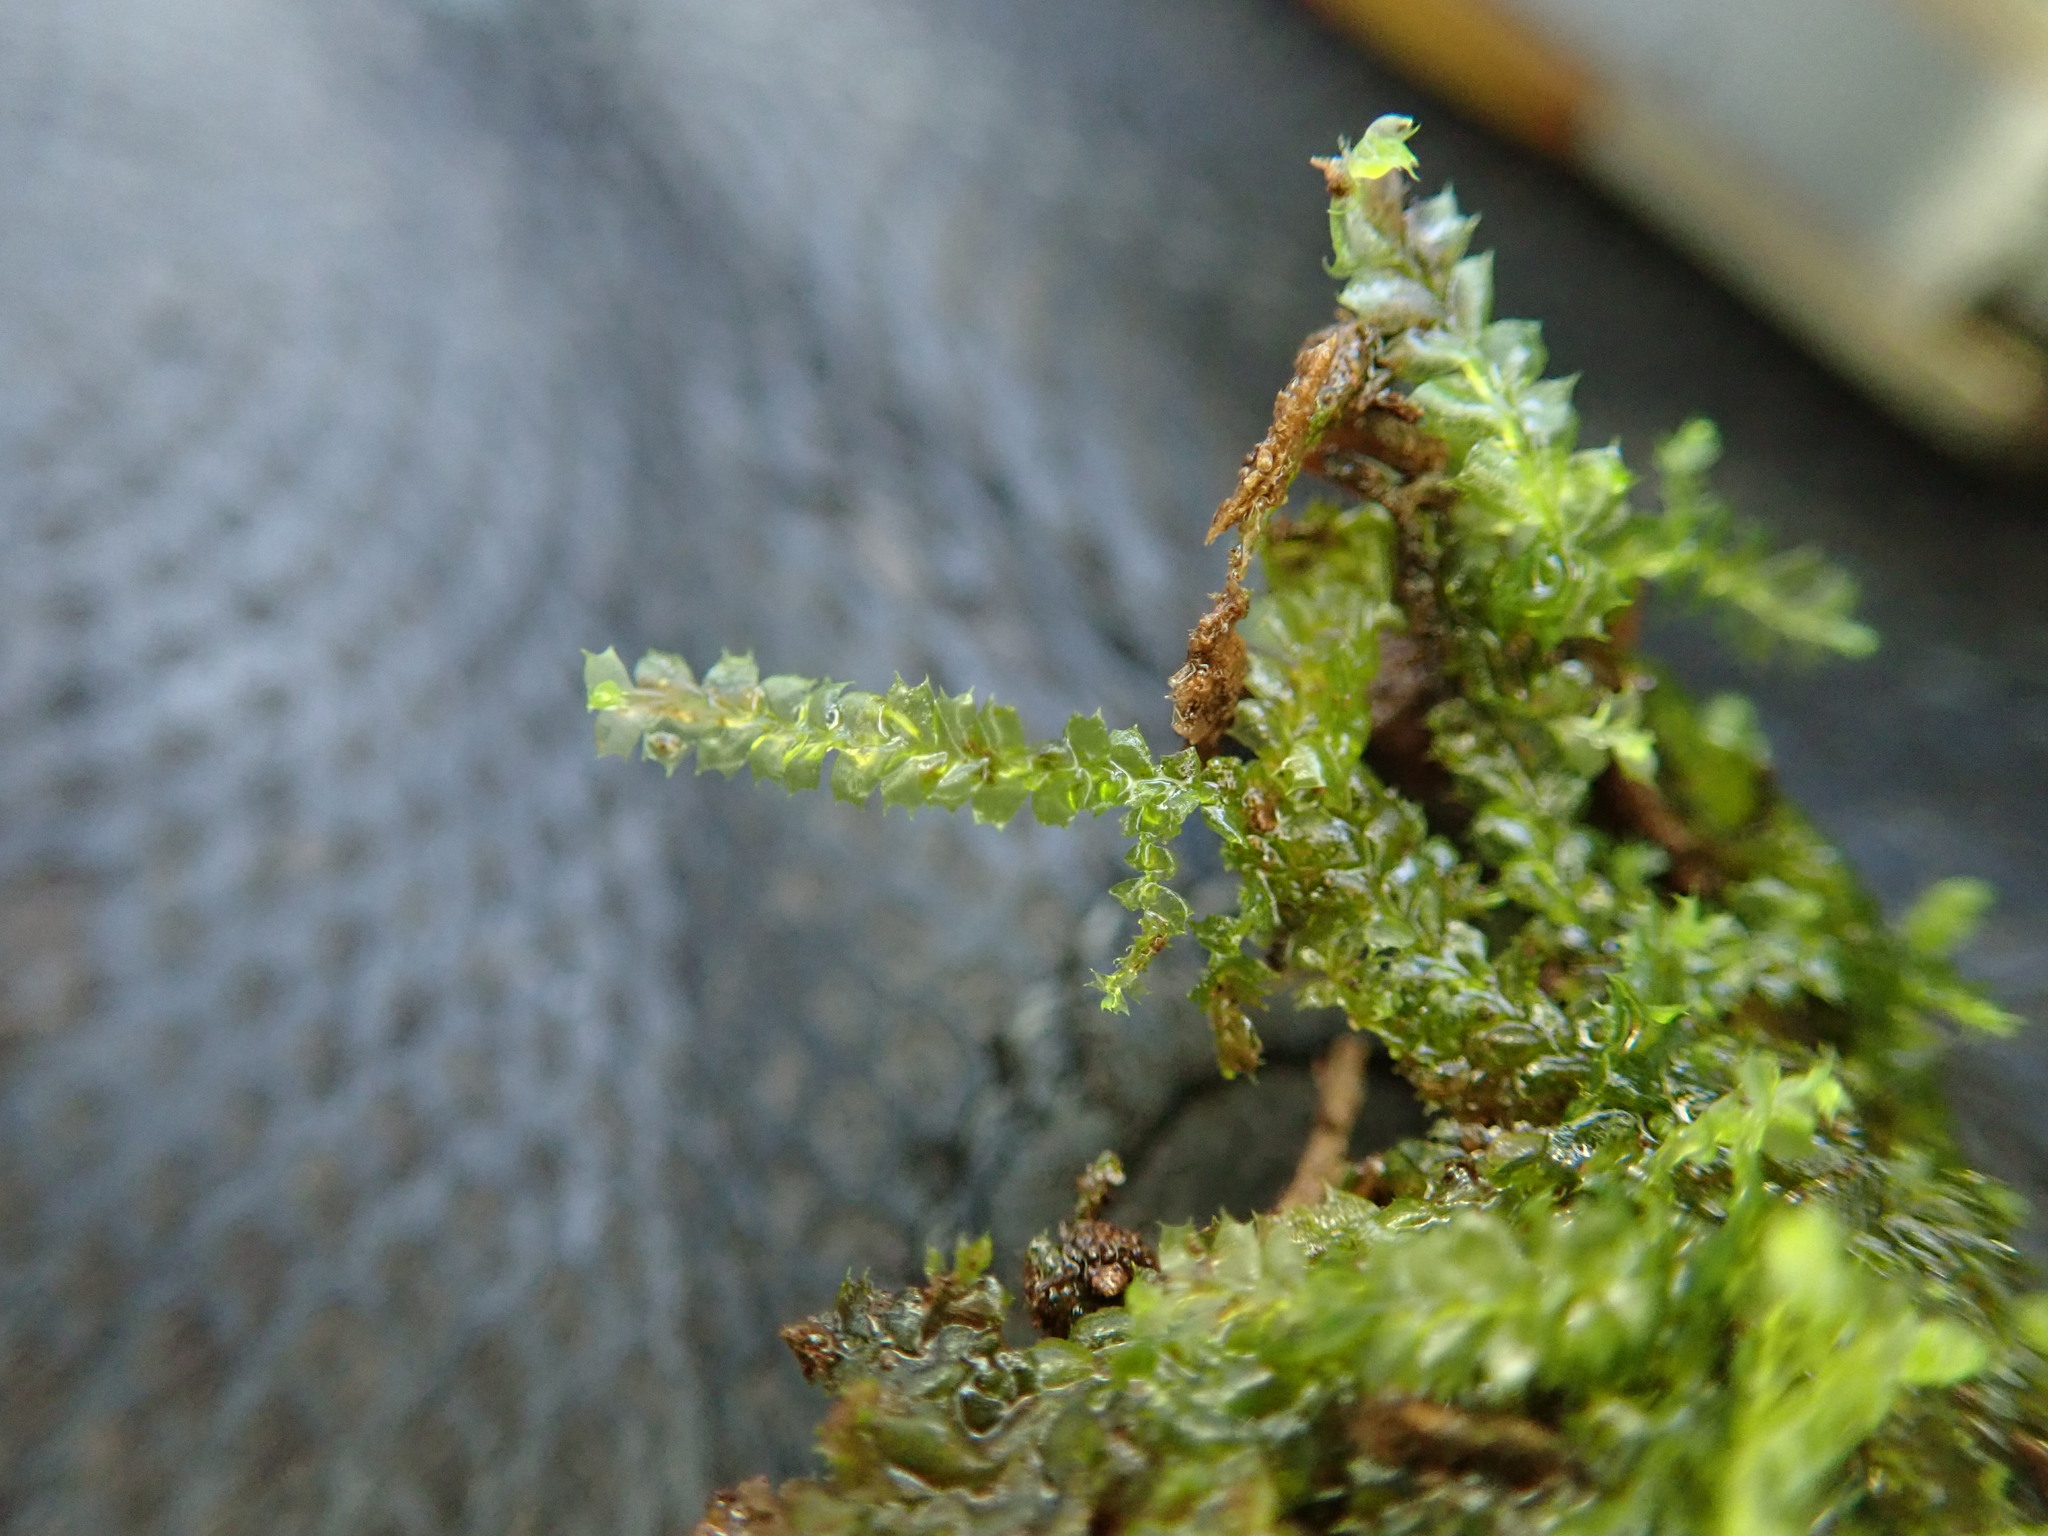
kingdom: Plantae
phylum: Marchantiophyta
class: Jungermanniopsida
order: Jungermanniales
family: Lophocoleaceae
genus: Lophocolea
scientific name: Lophocolea heterophylla
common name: Variable-leaved crestwort
